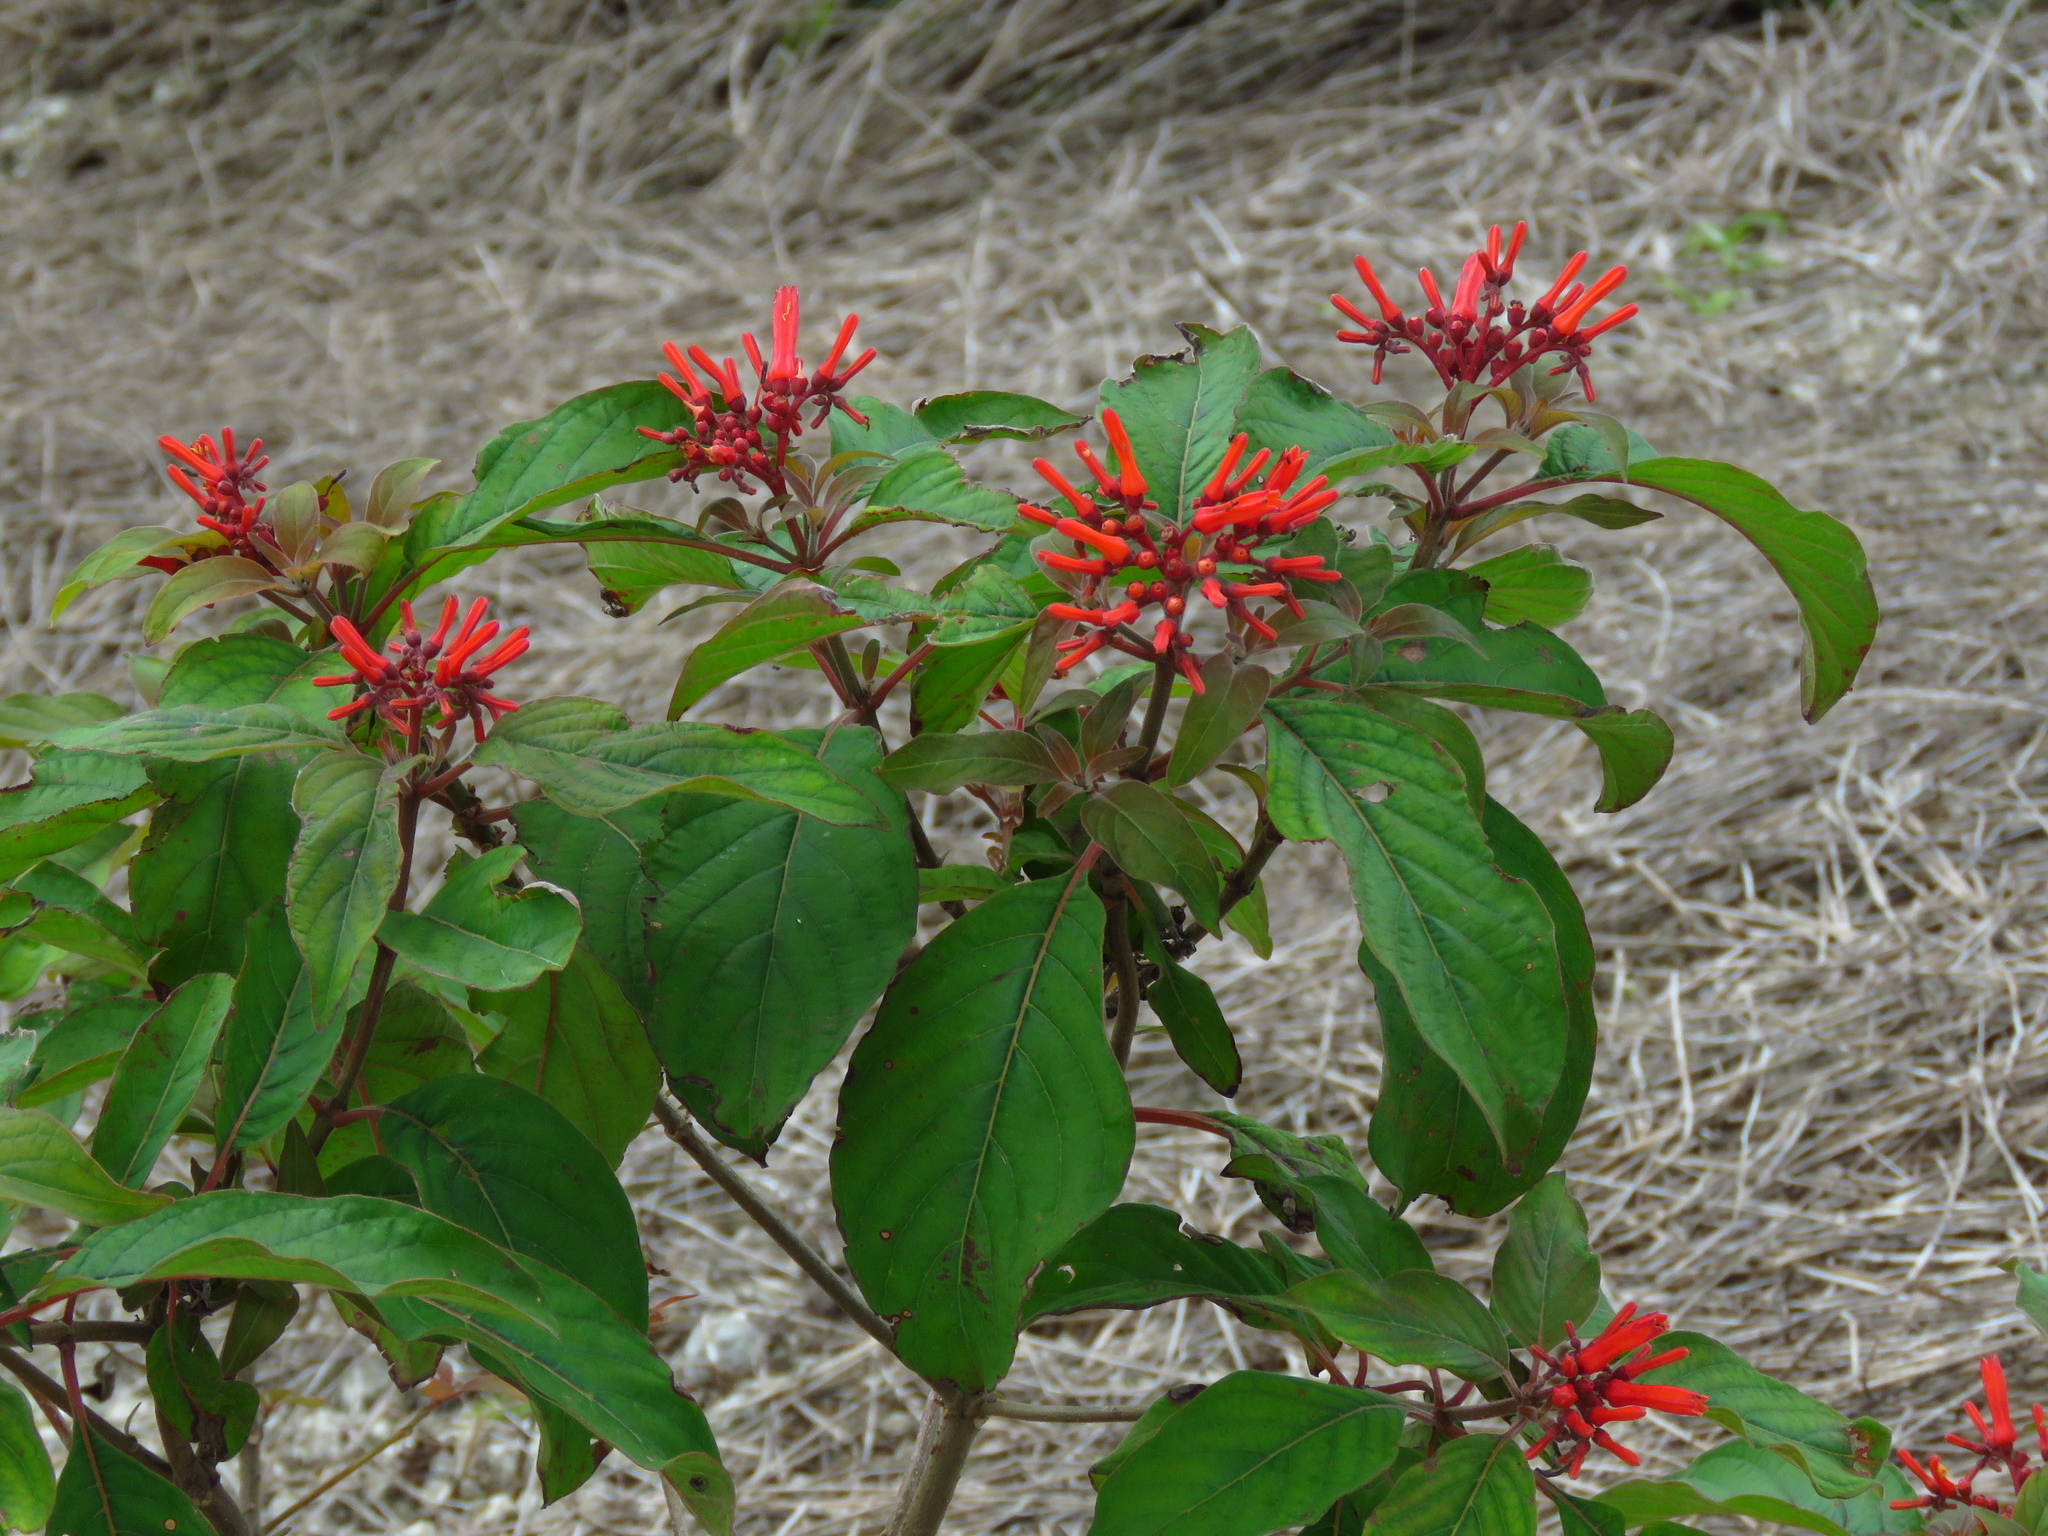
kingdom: Plantae
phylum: Tracheophyta
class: Magnoliopsida
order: Gentianales
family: Rubiaceae
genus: Hamelia
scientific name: Hamelia patens
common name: Redhead
